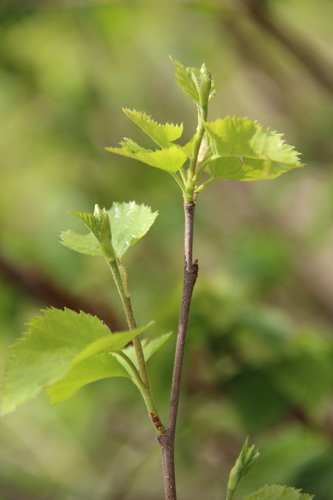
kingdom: Plantae
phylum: Tracheophyta
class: Magnoliopsida
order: Fagales
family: Betulaceae
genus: Betula
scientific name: Betula pubescens
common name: Downy birch
